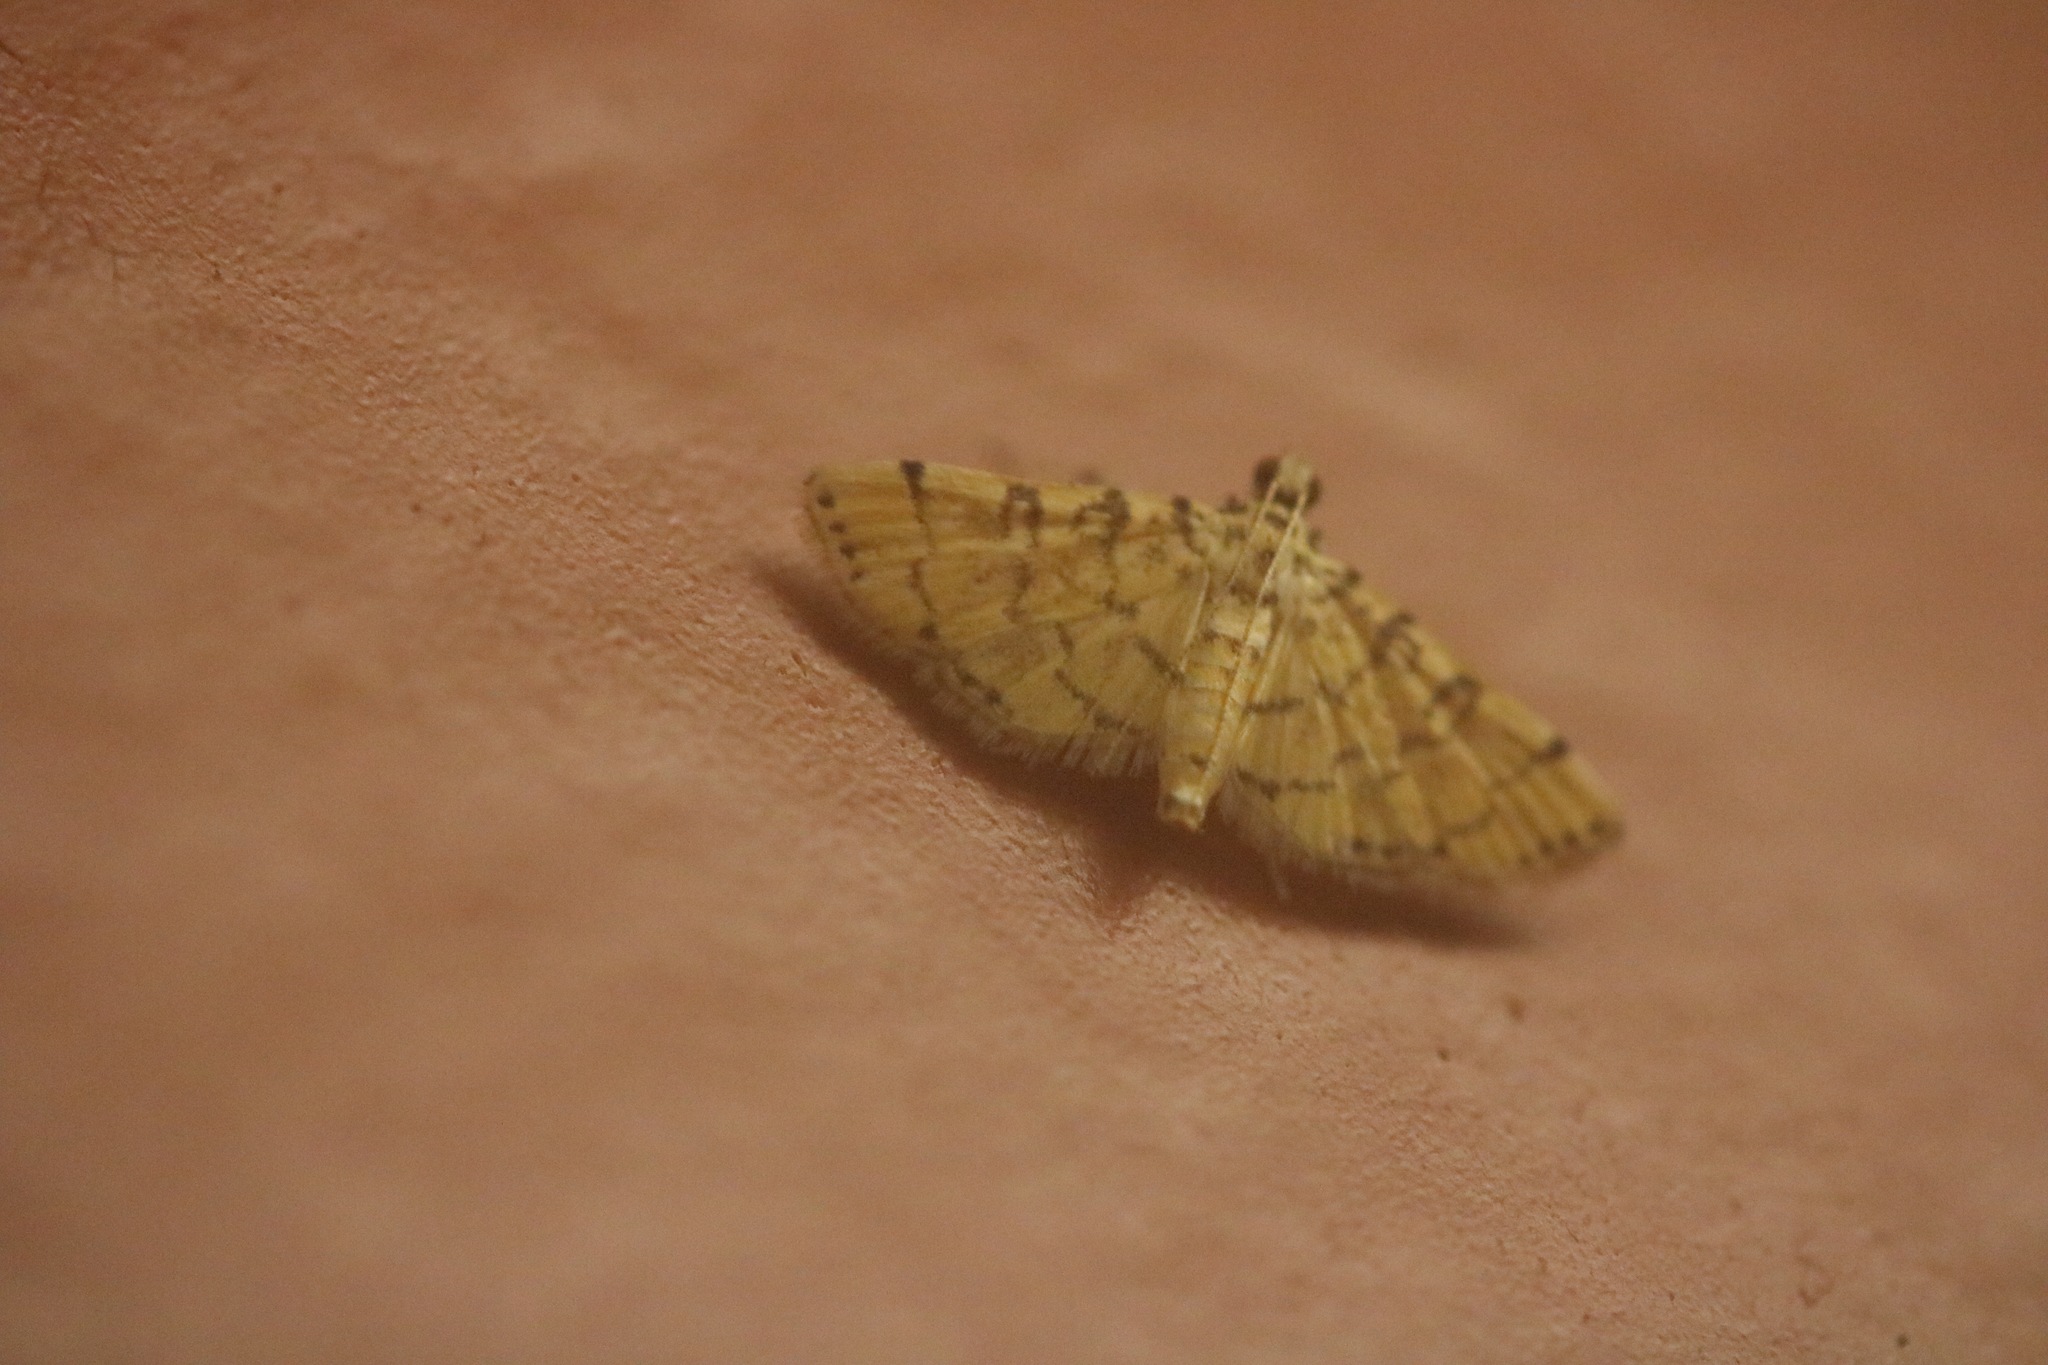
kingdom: Animalia
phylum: Arthropoda
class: Insecta
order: Lepidoptera
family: Crambidae
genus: Lamprosema
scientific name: Lamprosema tampiusalis
